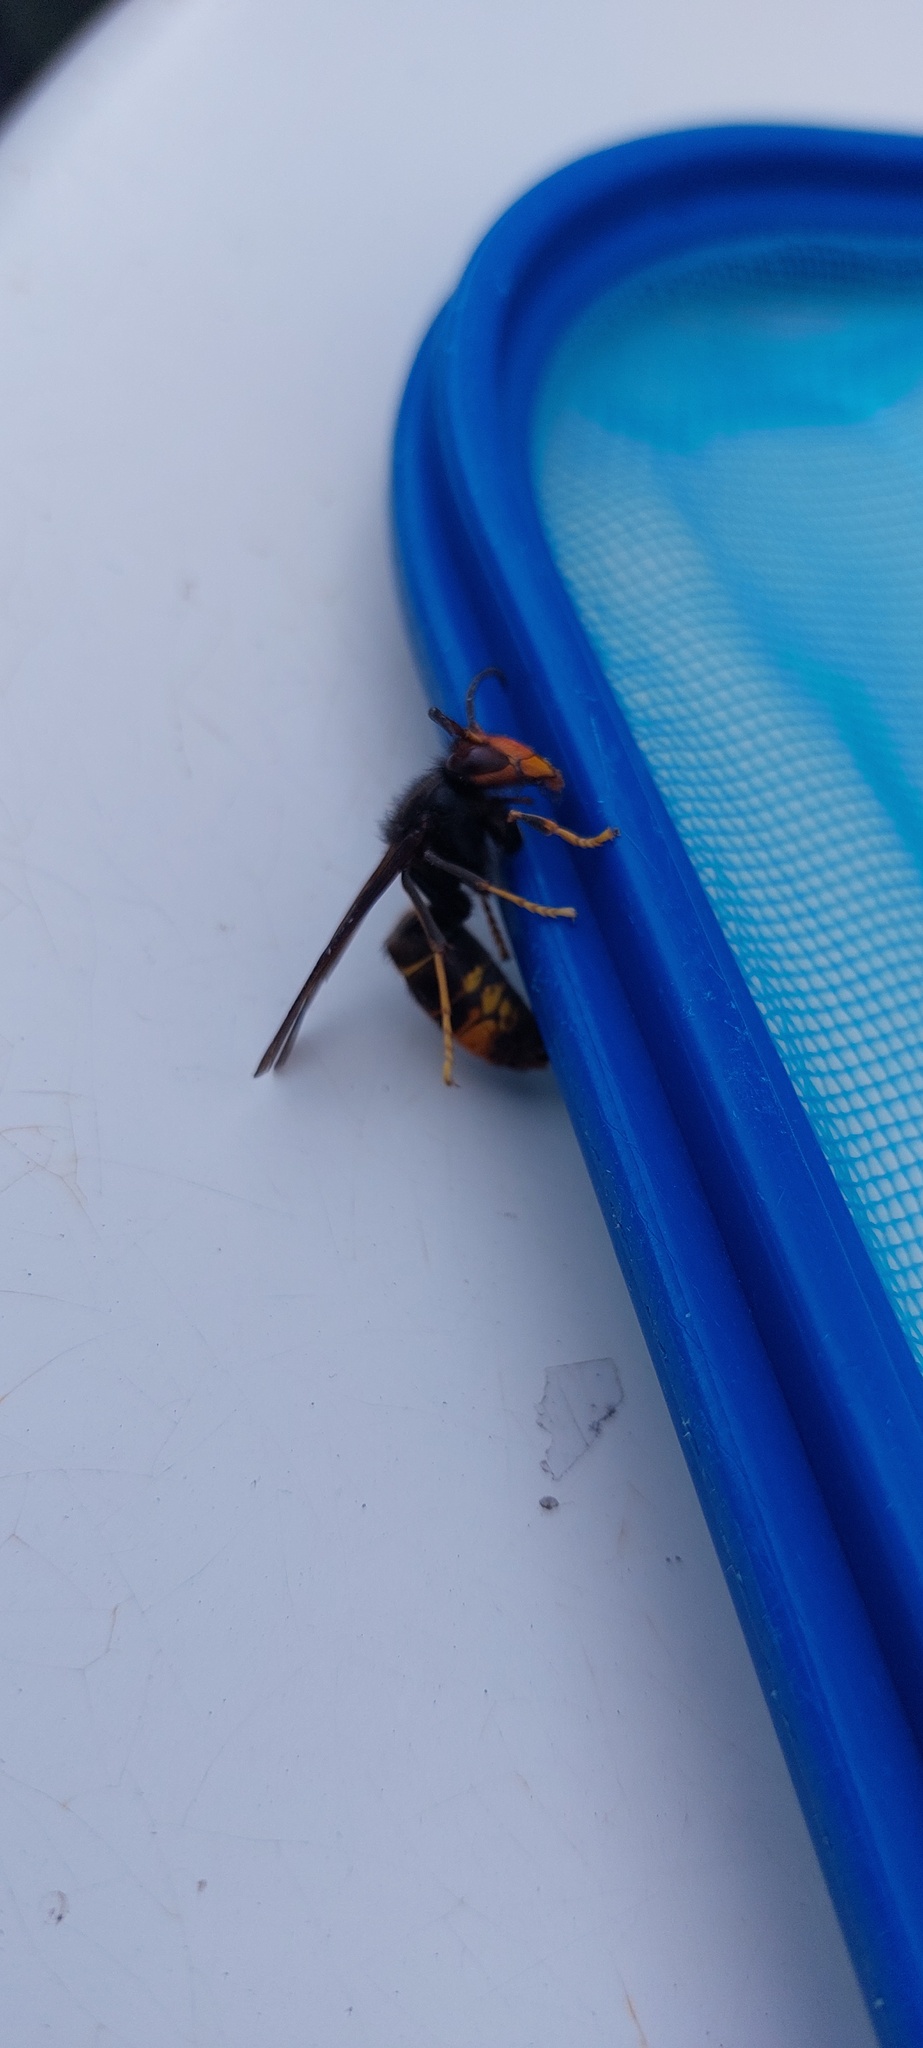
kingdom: Animalia
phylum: Arthropoda
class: Insecta
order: Hymenoptera
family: Vespidae
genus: Vespa
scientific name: Vespa velutina
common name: Asian hornet
